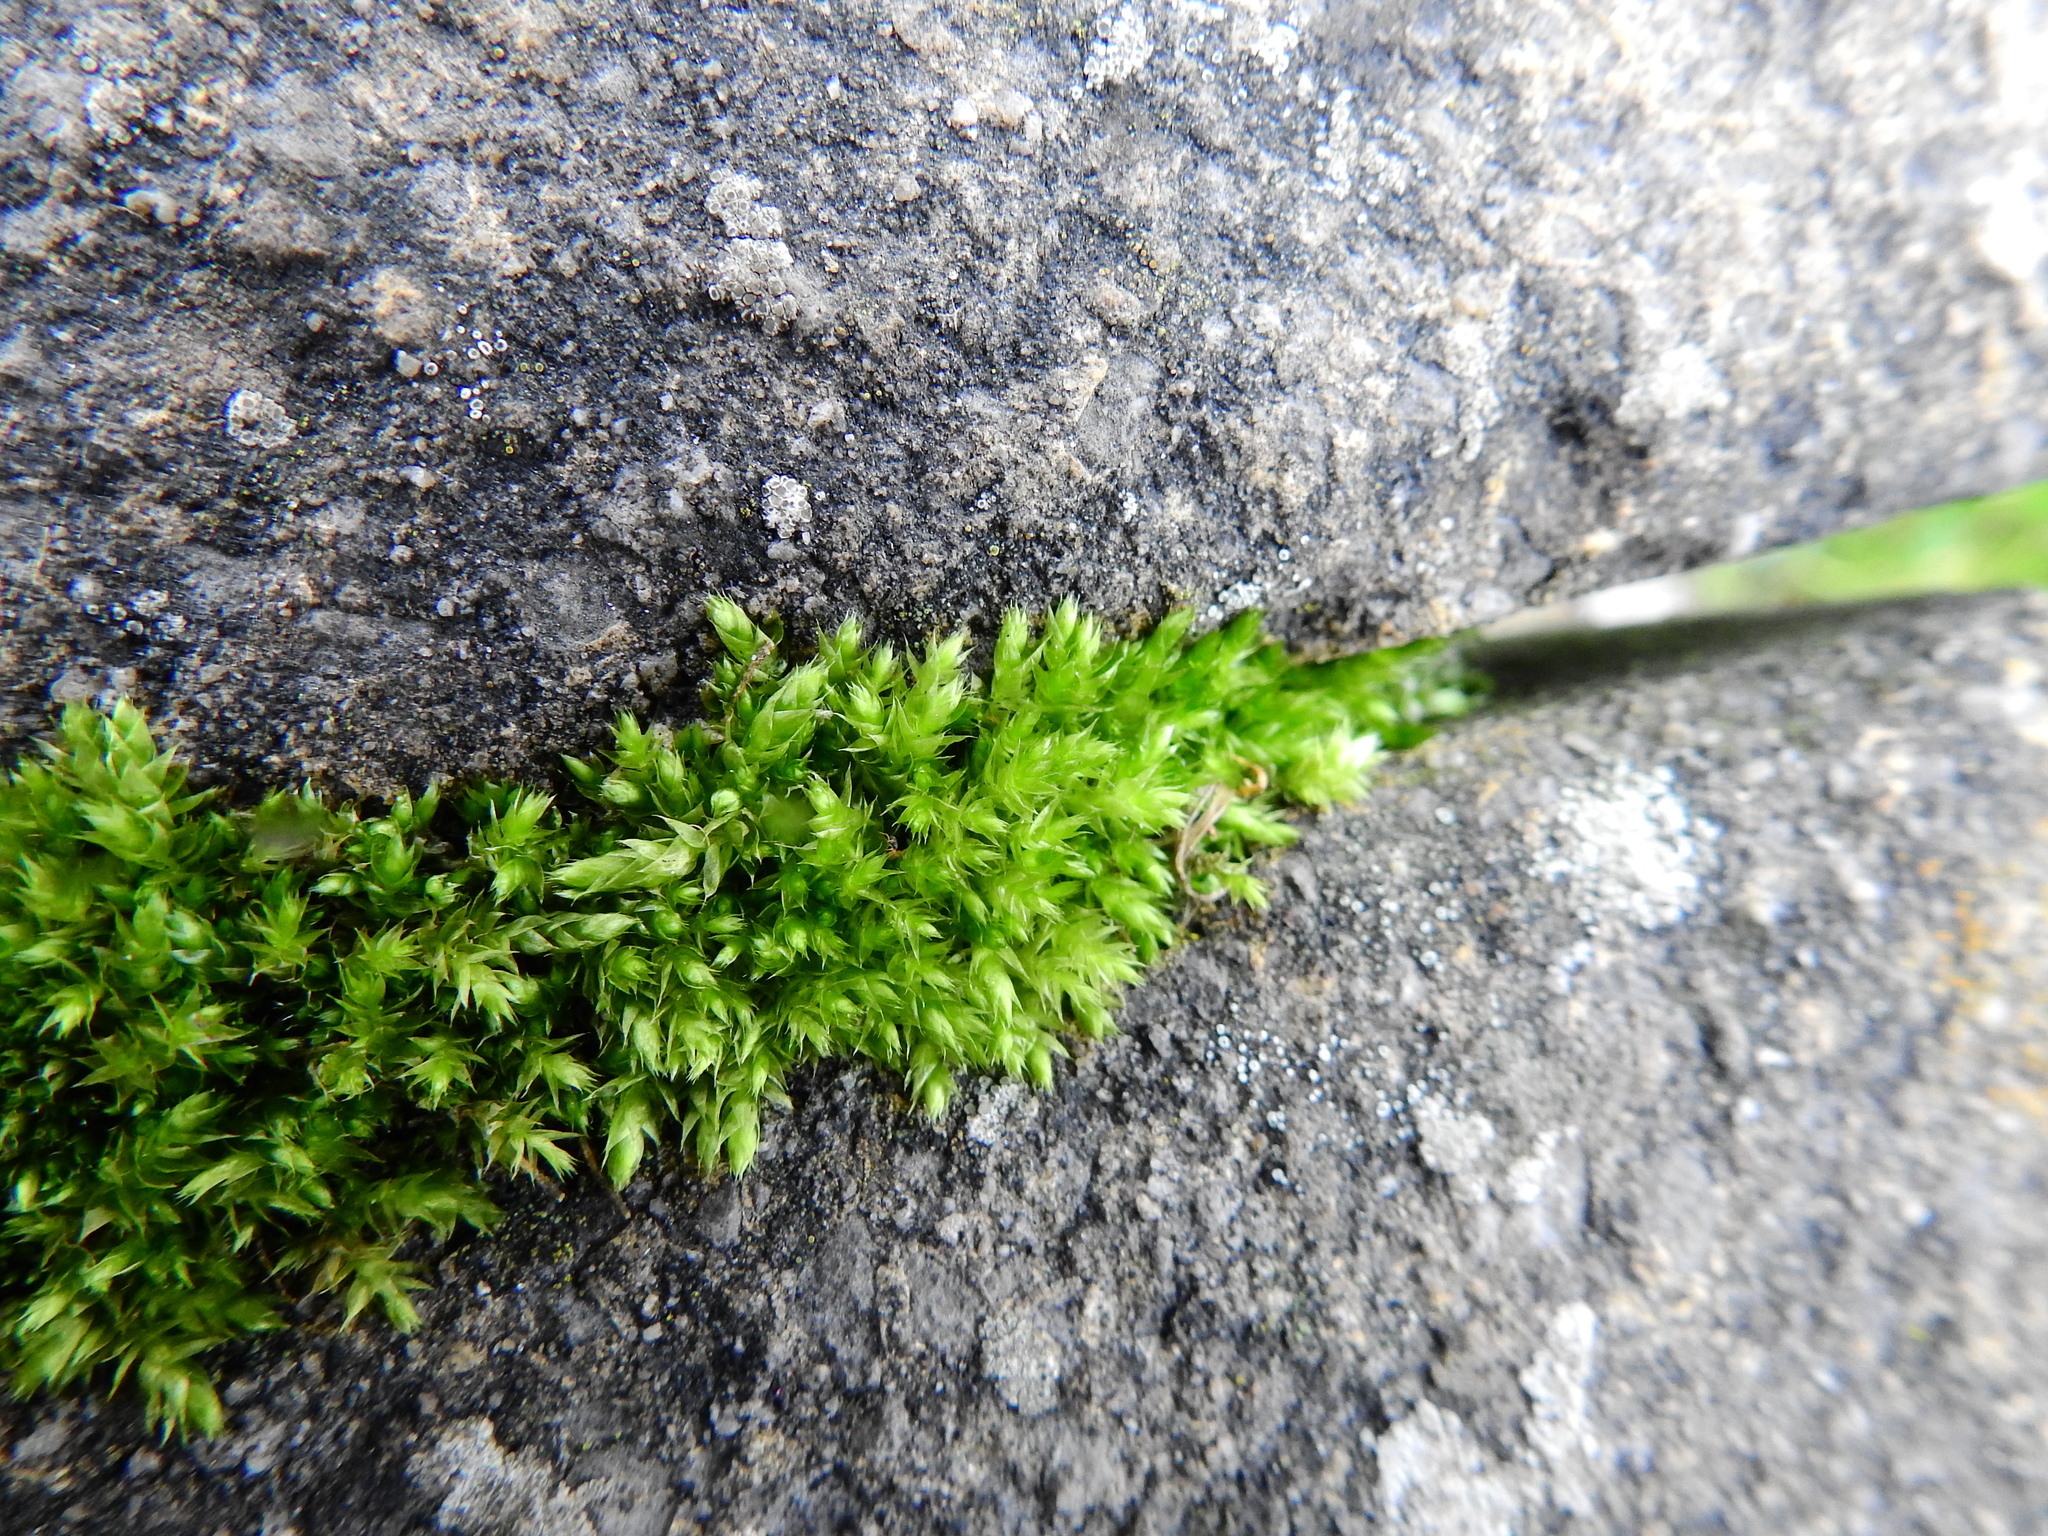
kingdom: Plantae
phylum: Bryophyta
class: Bryopsida
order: Hypnales
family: Brachytheciaceae
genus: Brachythecium
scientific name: Brachythecium rutabulum
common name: Rough-stalked feather-moss
